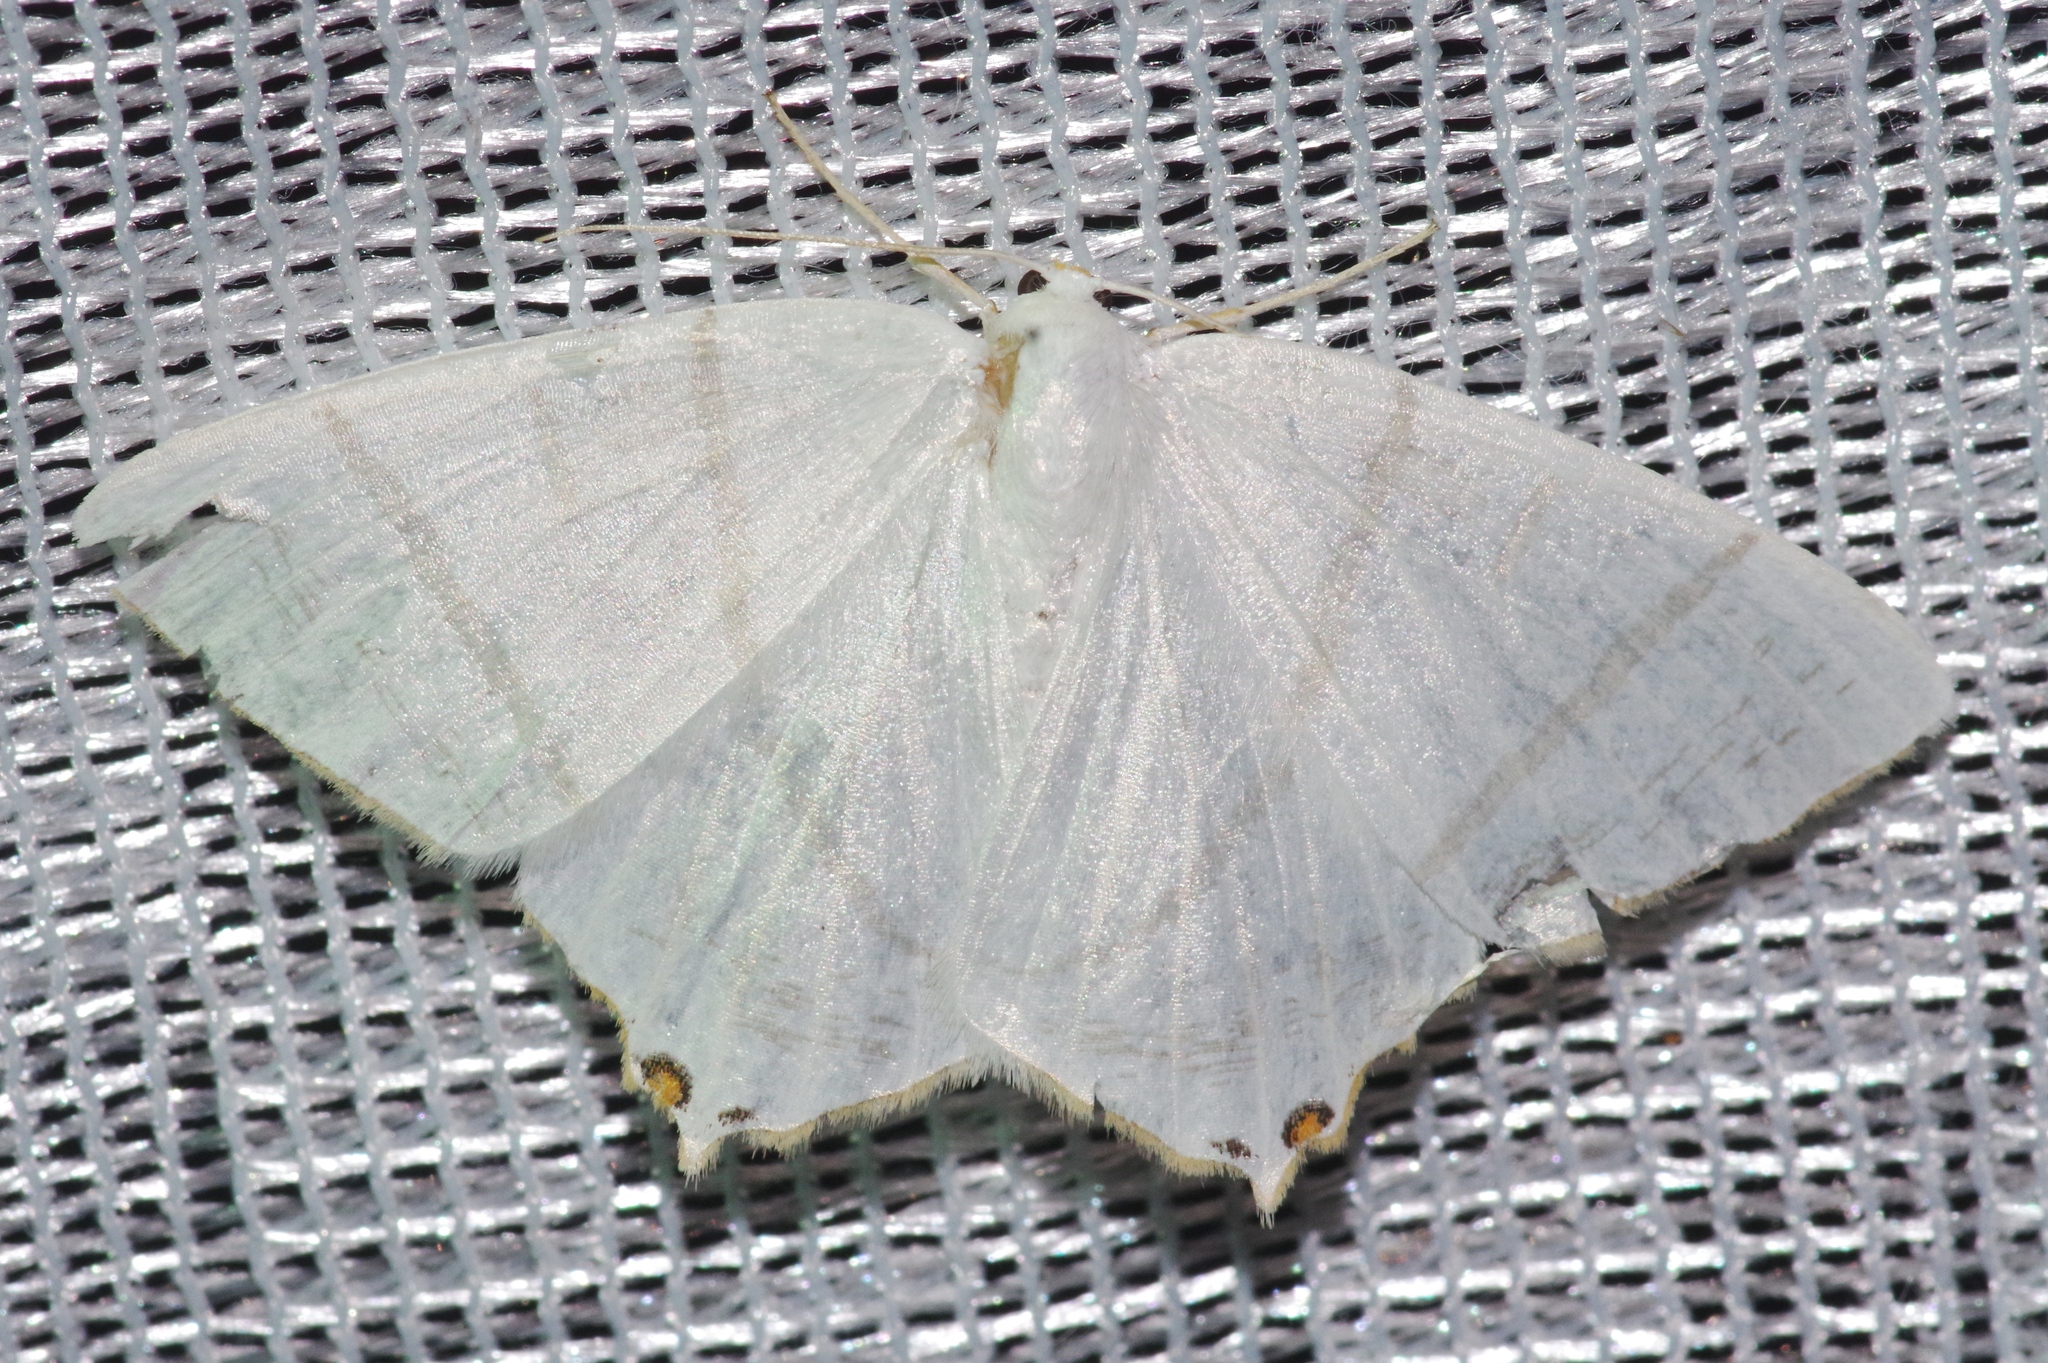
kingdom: Animalia
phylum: Arthropoda
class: Insecta
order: Lepidoptera
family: Geometridae
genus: Ourapteryx
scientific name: Ourapteryx obtusicauda
